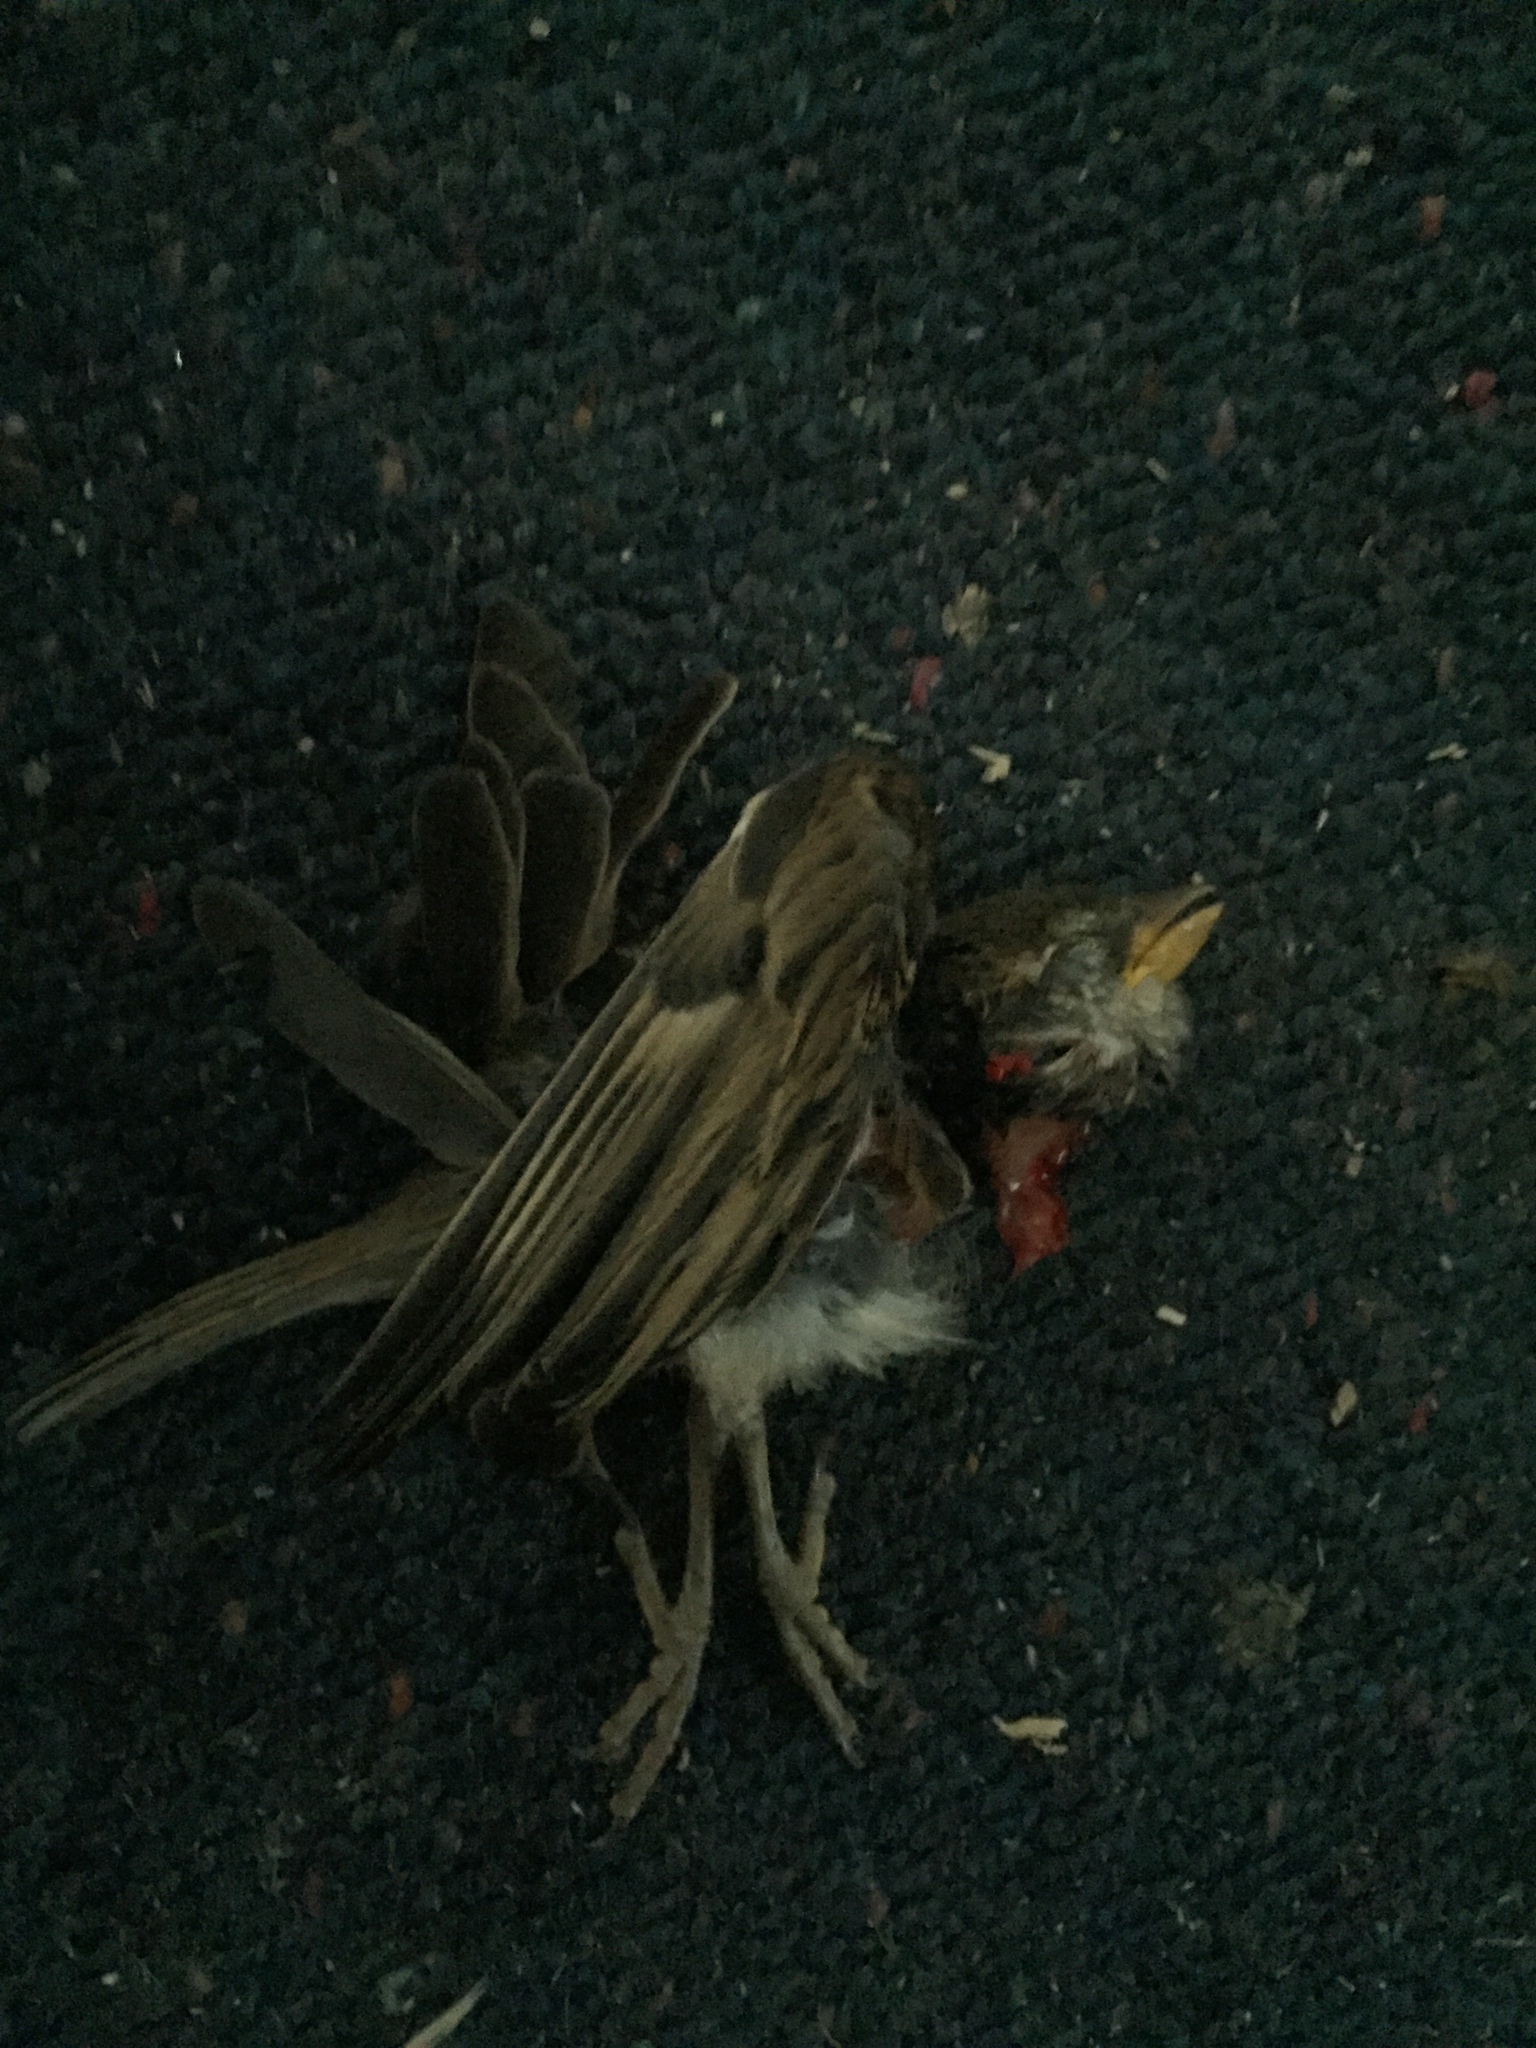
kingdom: Animalia
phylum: Chordata
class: Aves
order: Passeriformes
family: Passeridae
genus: Passer
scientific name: Passer domesticus
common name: House sparrow
